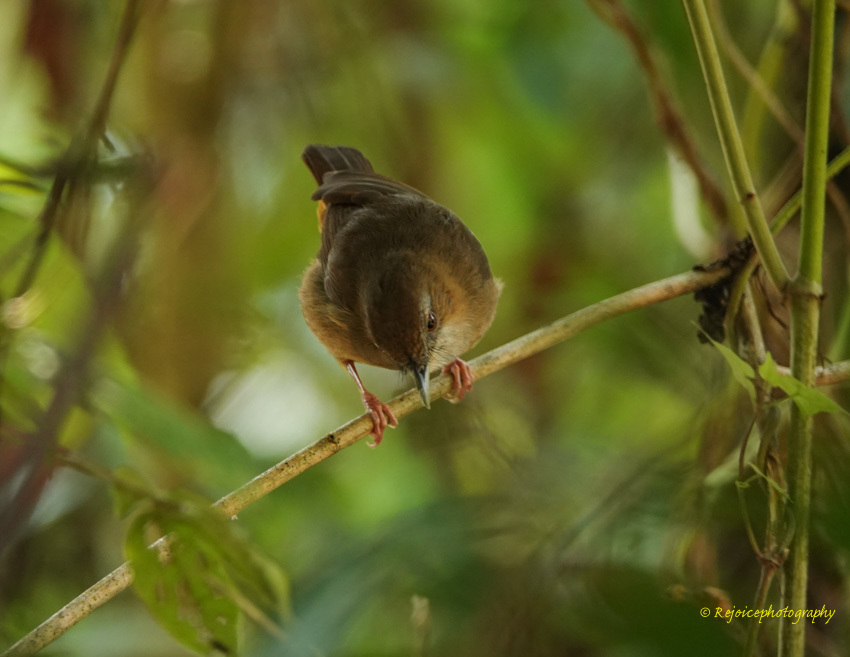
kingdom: Animalia
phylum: Chordata
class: Aves
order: Passeriformes
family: Pellorneidae
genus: Malacocincla
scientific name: Malacocincla abbotti
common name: Abbott's babbler
